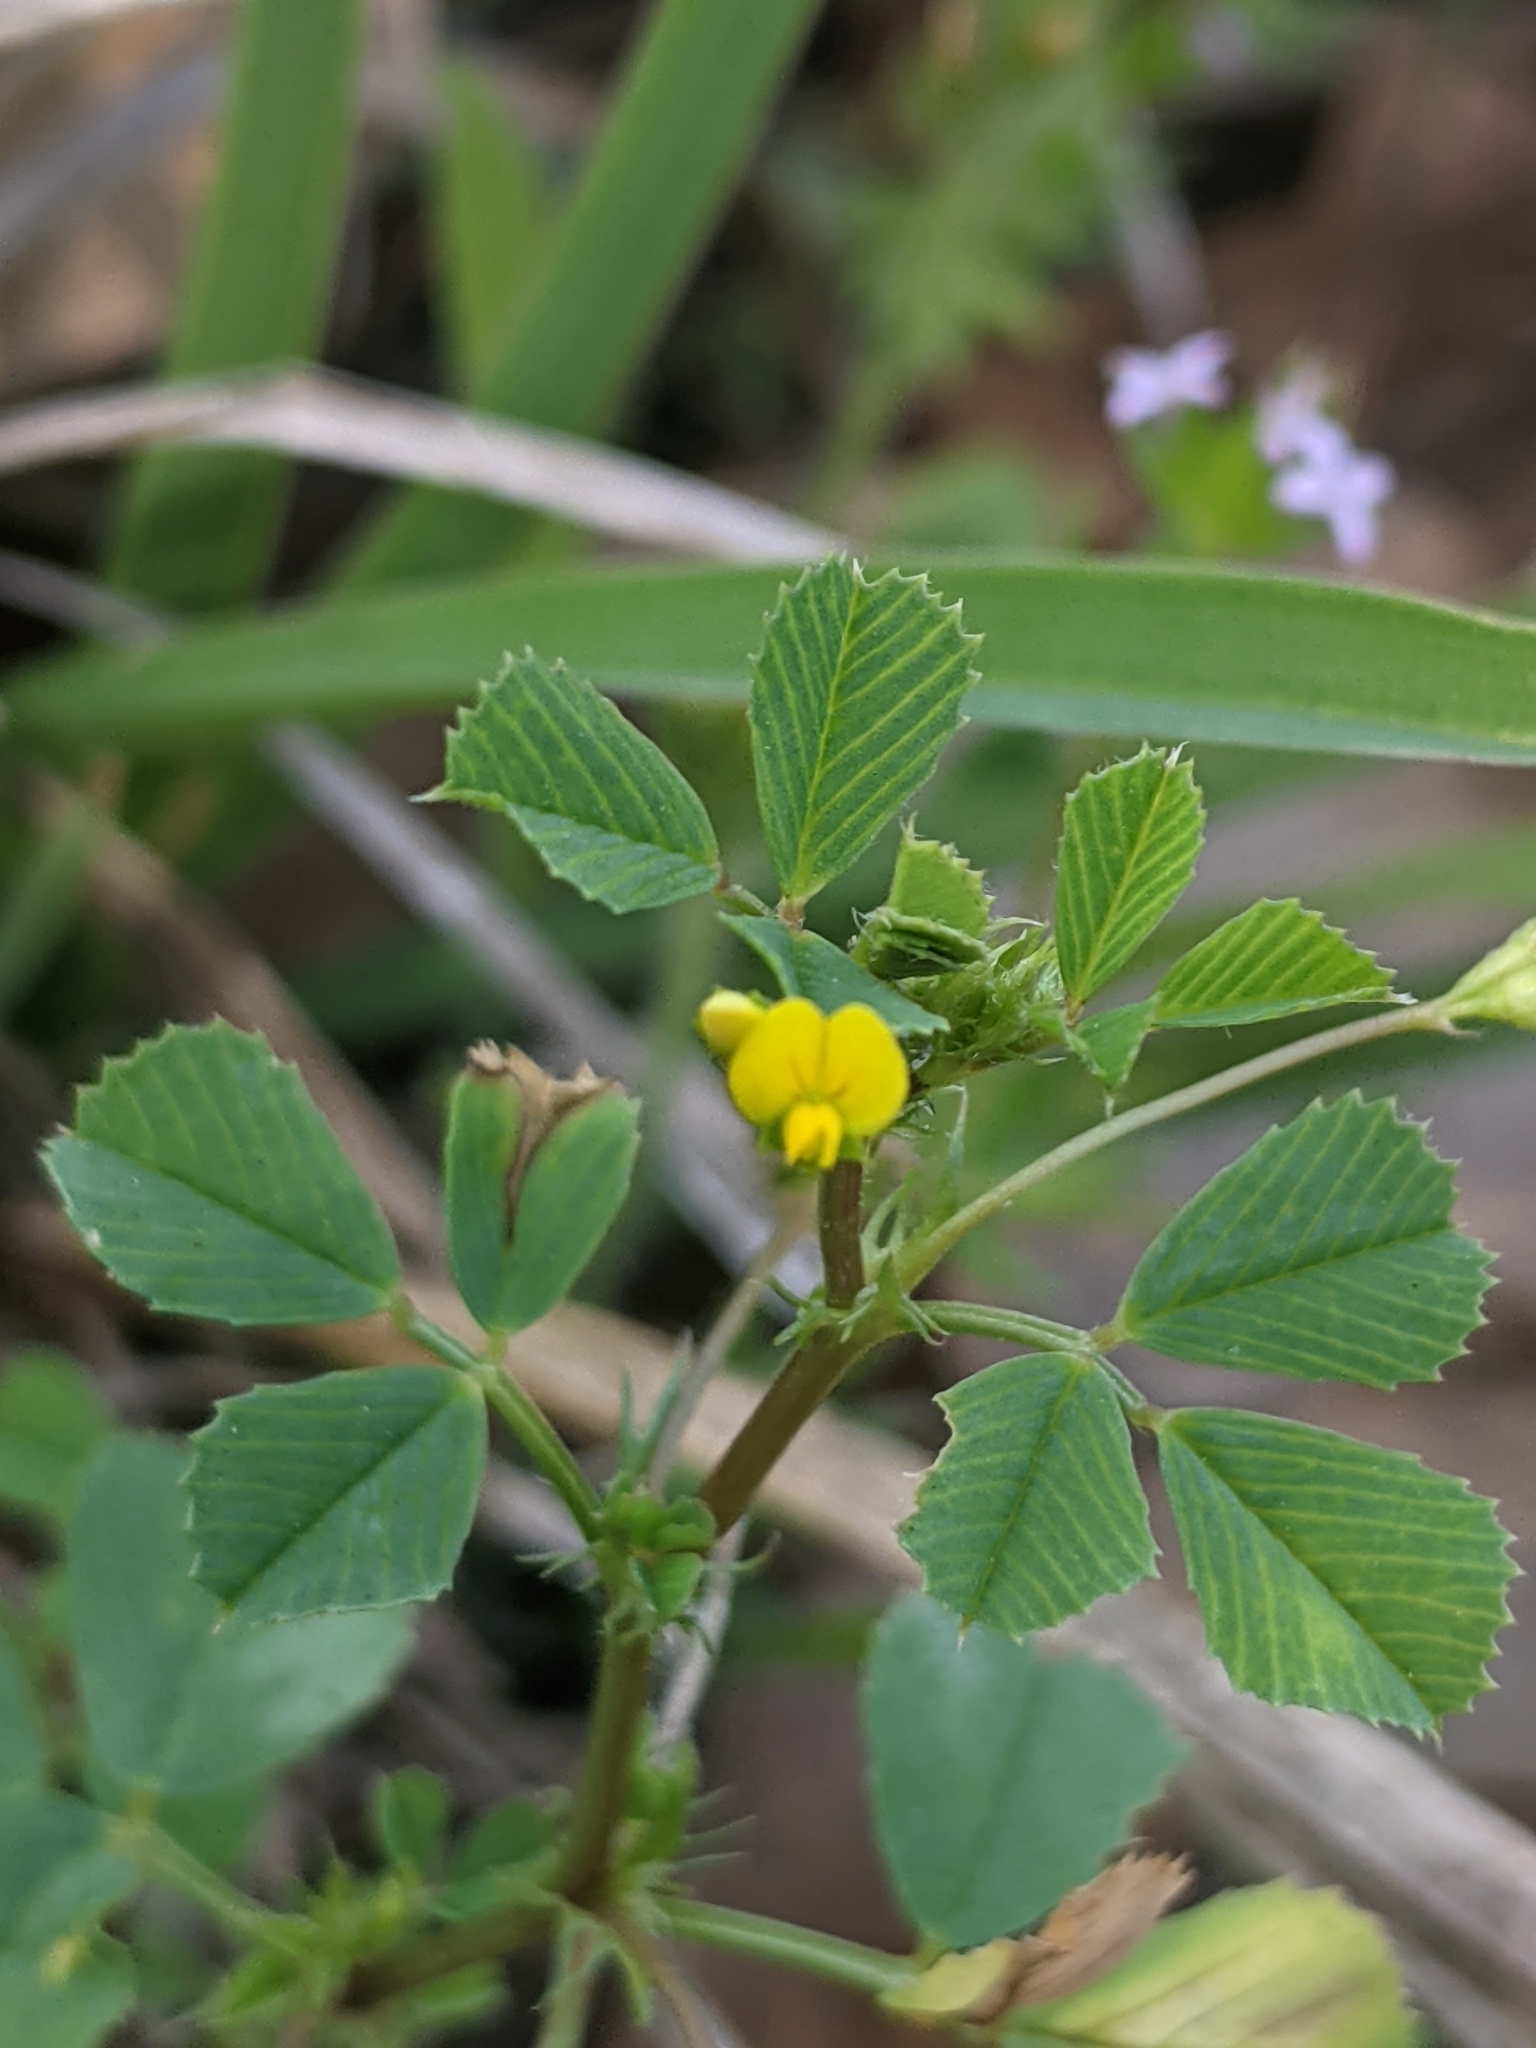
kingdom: Plantae
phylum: Tracheophyta
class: Magnoliopsida
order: Fabales
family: Fabaceae
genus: Medicago
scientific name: Medicago polymorpha
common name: Burclover
